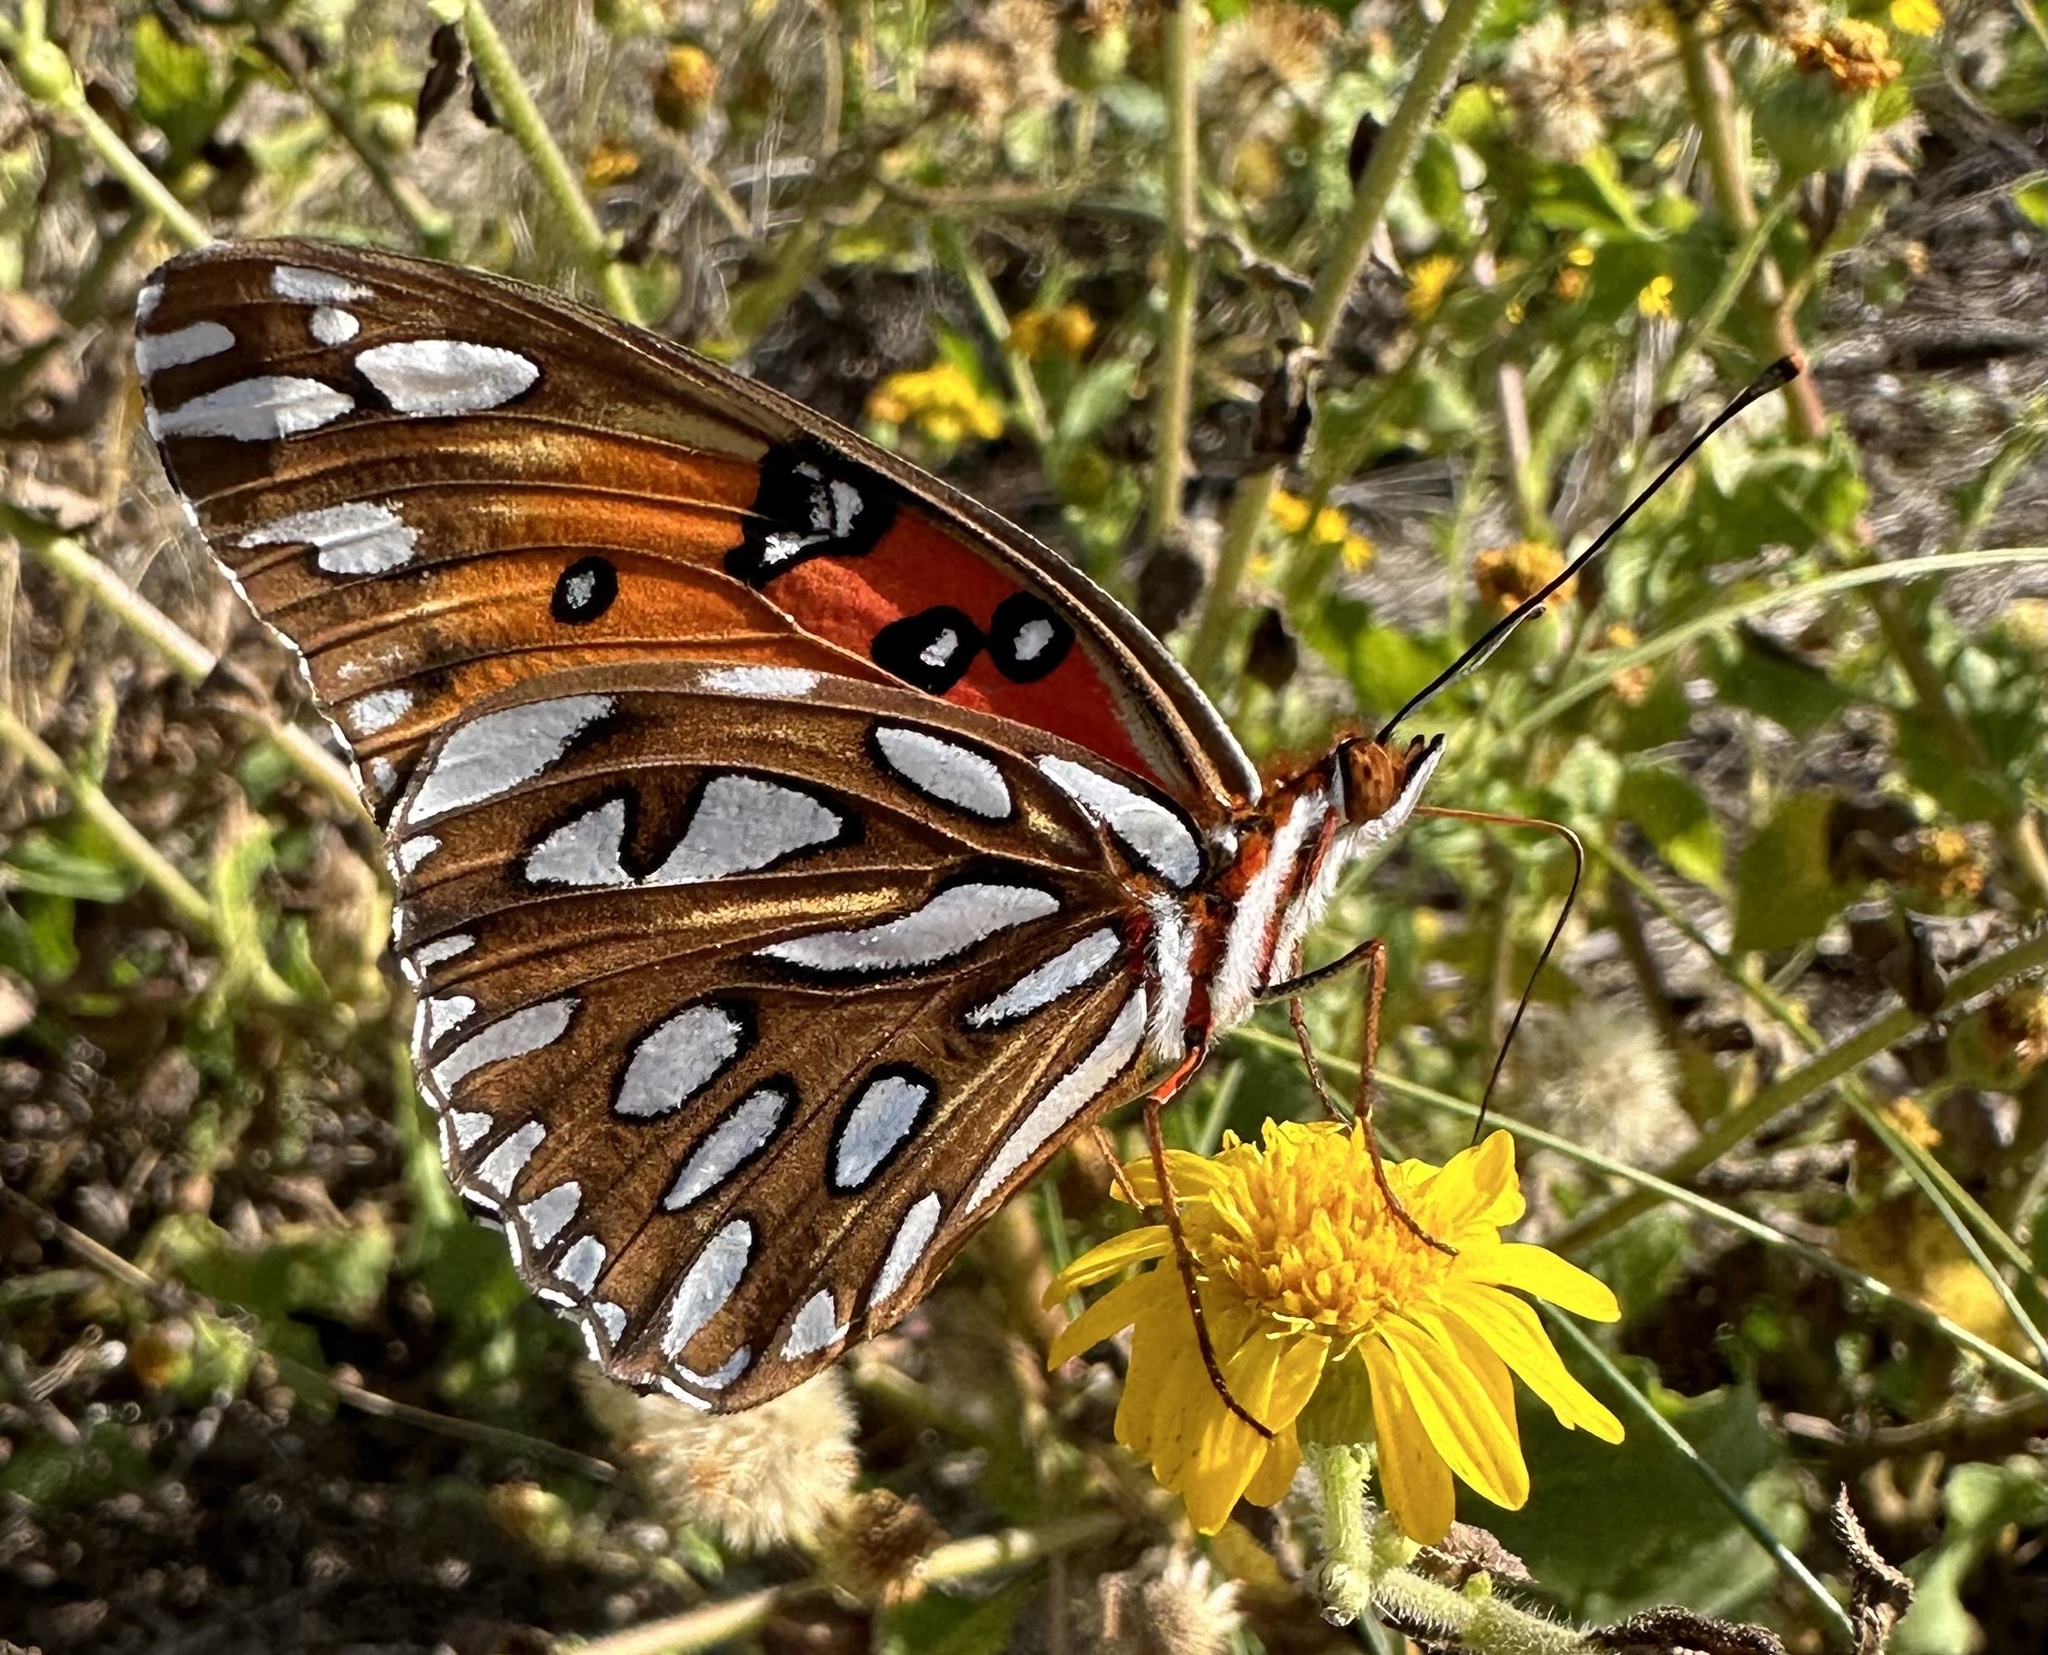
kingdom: Animalia
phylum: Arthropoda
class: Insecta
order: Lepidoptera
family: Nymphalidae
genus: Dione
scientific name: Dione vanillae
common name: Gulf fritillary
